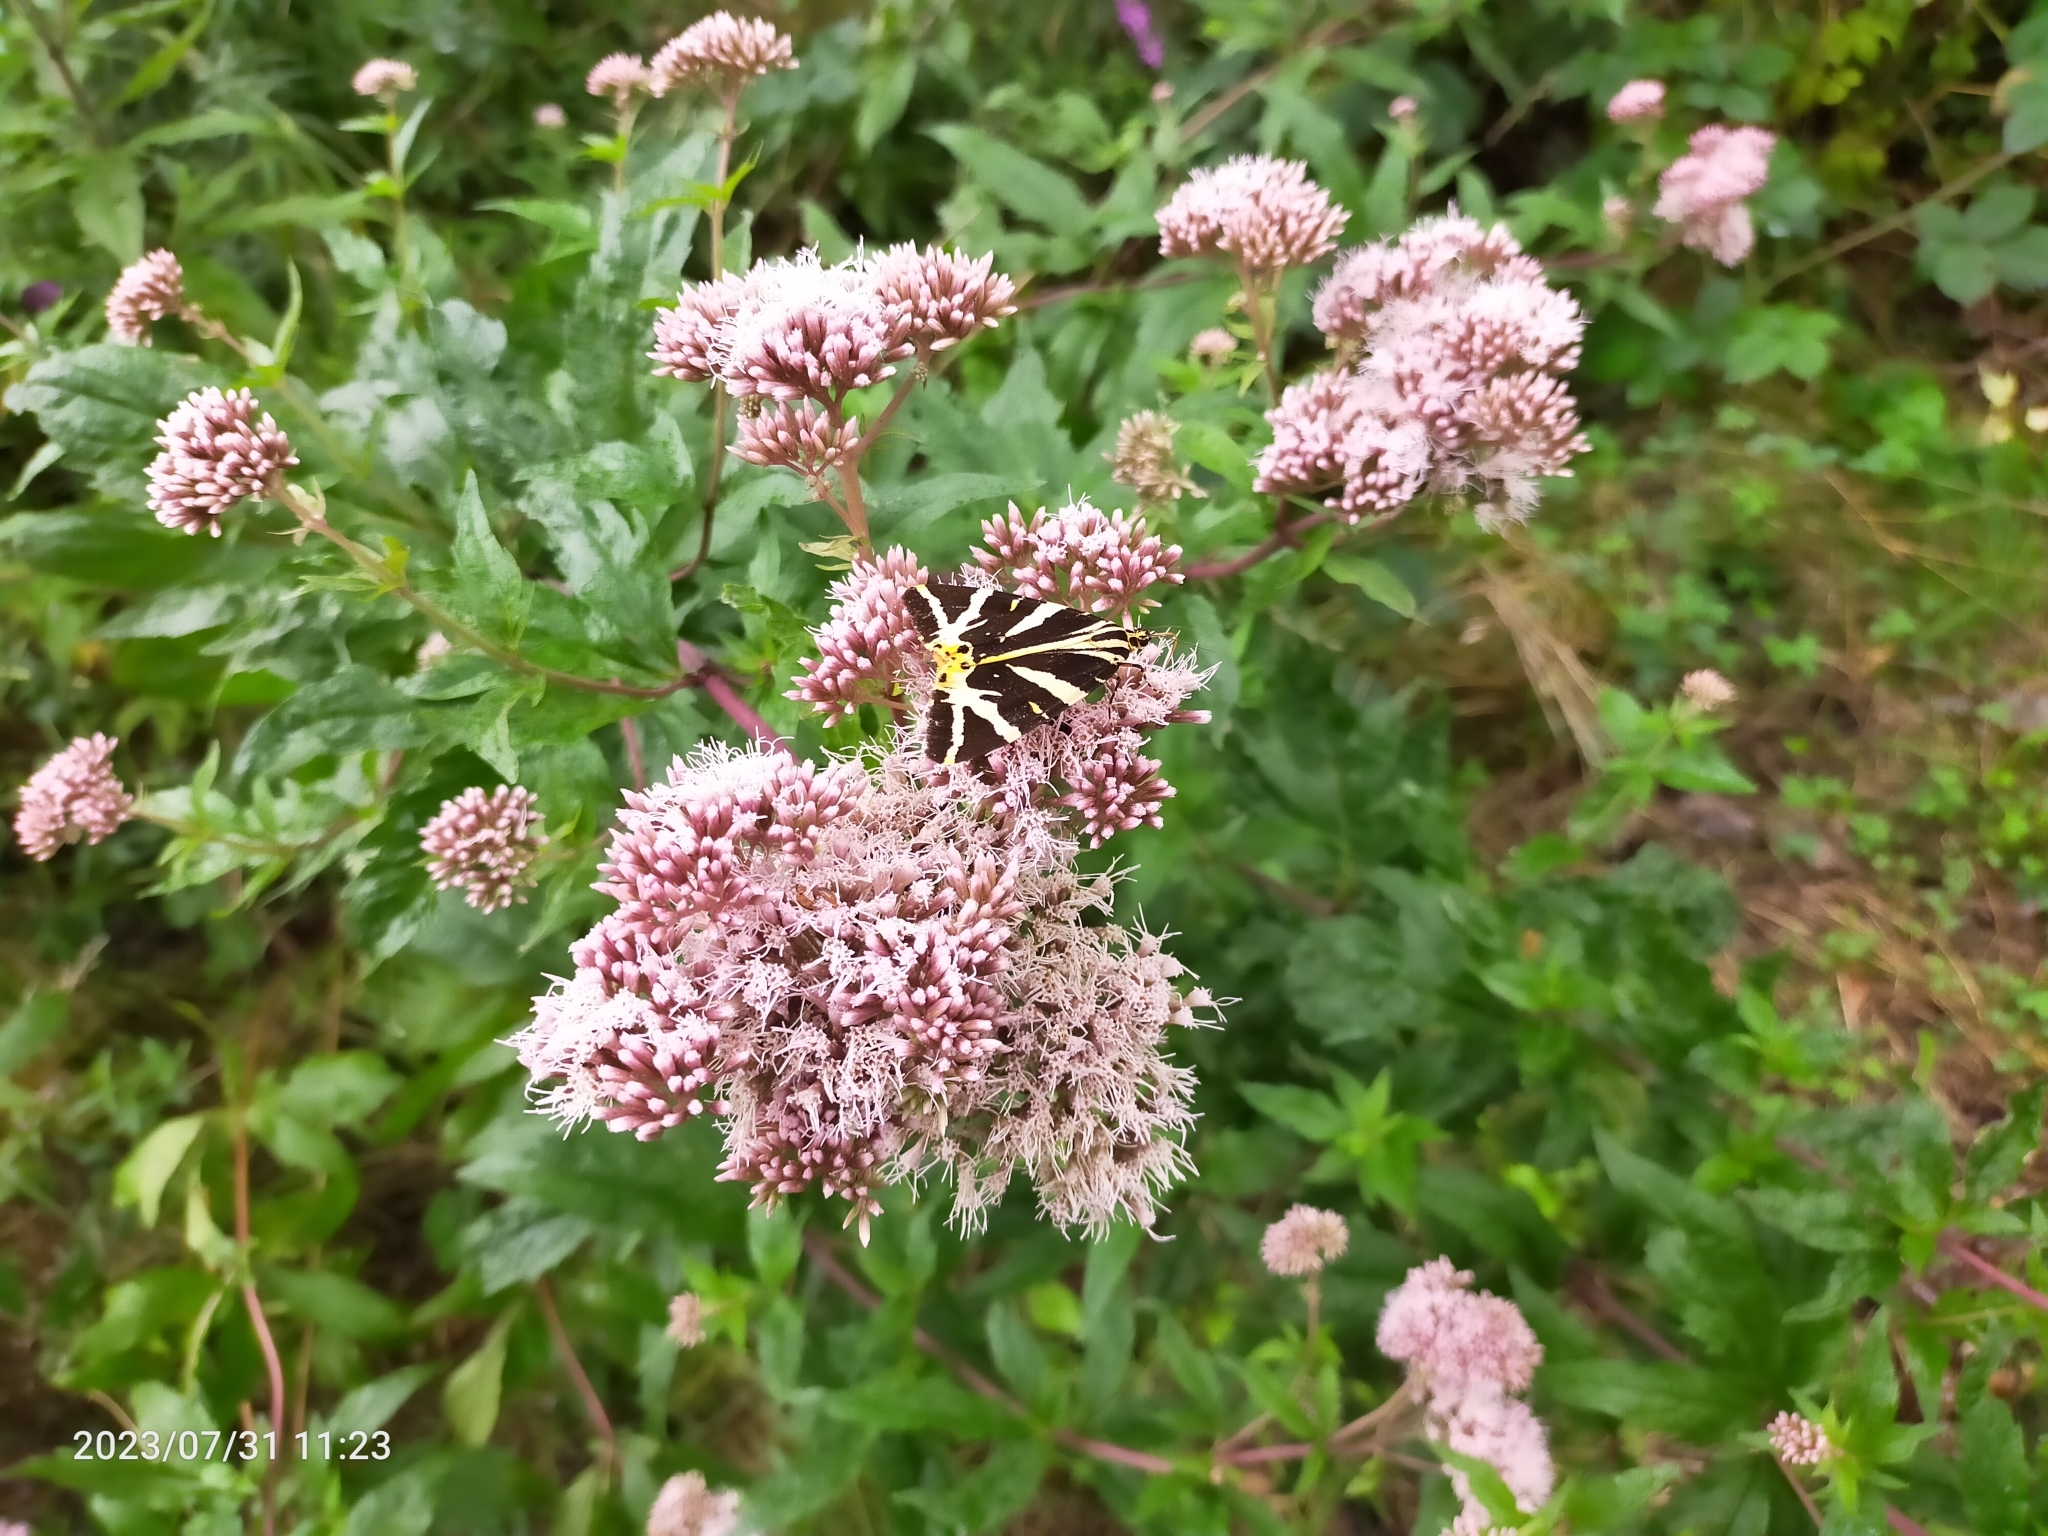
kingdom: Animalia
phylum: Arthropoda
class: Insecta
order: Lepidoptera
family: Erebidae
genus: Euplagia
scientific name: Euplagia quadripunctaria
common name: Jersey tiger
